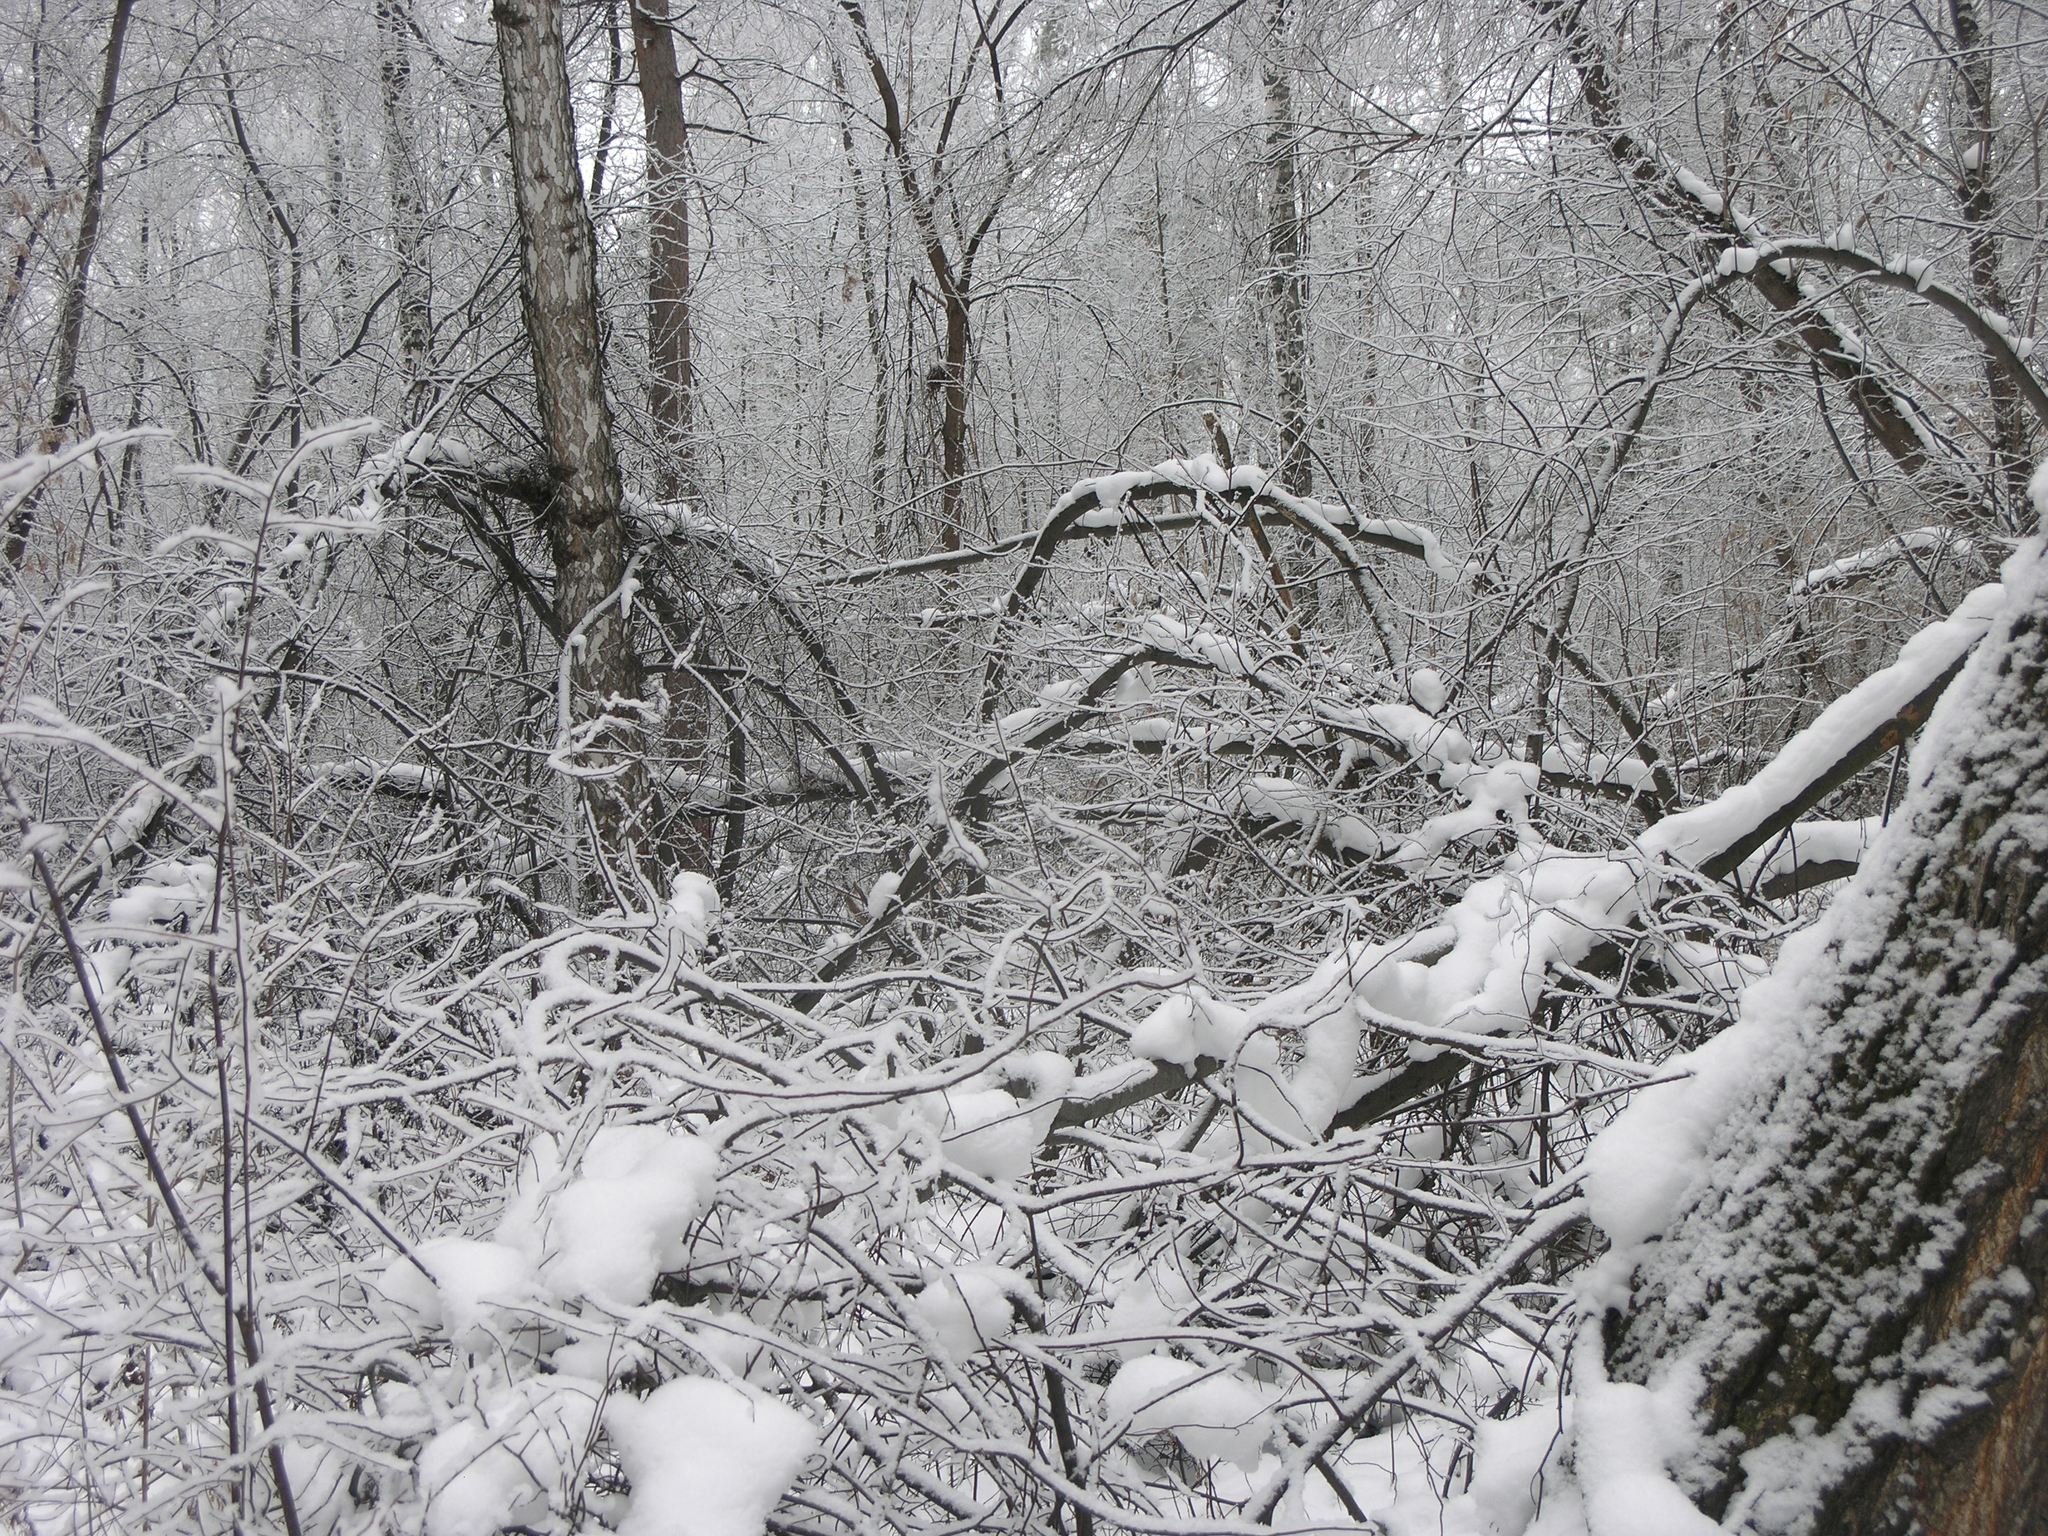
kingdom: Plantae
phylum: Tracheophyta
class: Magnoliopsida
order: Rosales
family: Rosaceae
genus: Prunus
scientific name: Prunus padus
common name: Bird cherry
